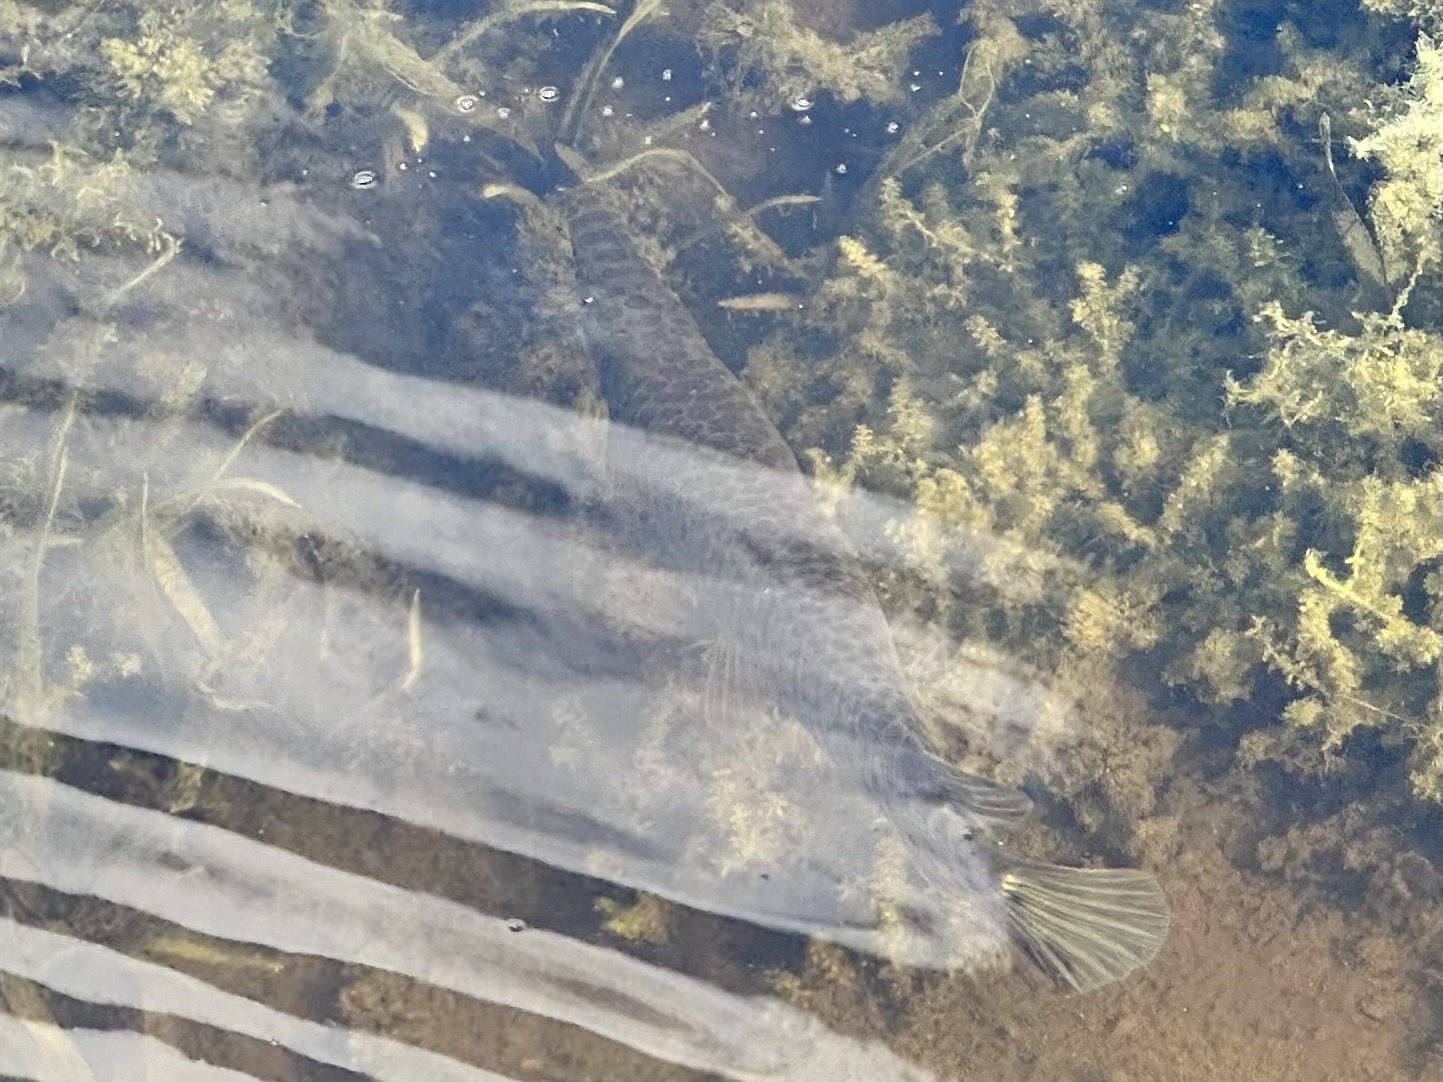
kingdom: Animalia
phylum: Chordata
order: Lepisosteiformes
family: Lepisosteidae
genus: Lepisosteus
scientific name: Lepisosteus platyrhincus
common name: Florida gar
